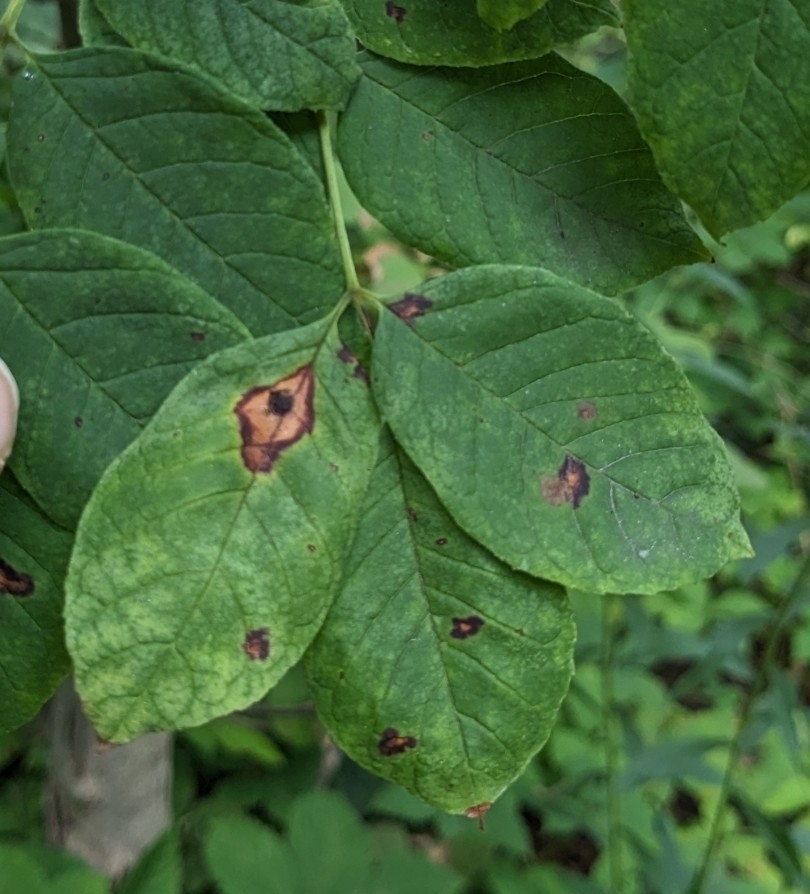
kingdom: Fungi
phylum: Ascomycota
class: Dothideomycetes
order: Mycosphaerellales
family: Mycosphaerellaceae
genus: Mycosphaerella
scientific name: Mycosphaerella fraxinicola
